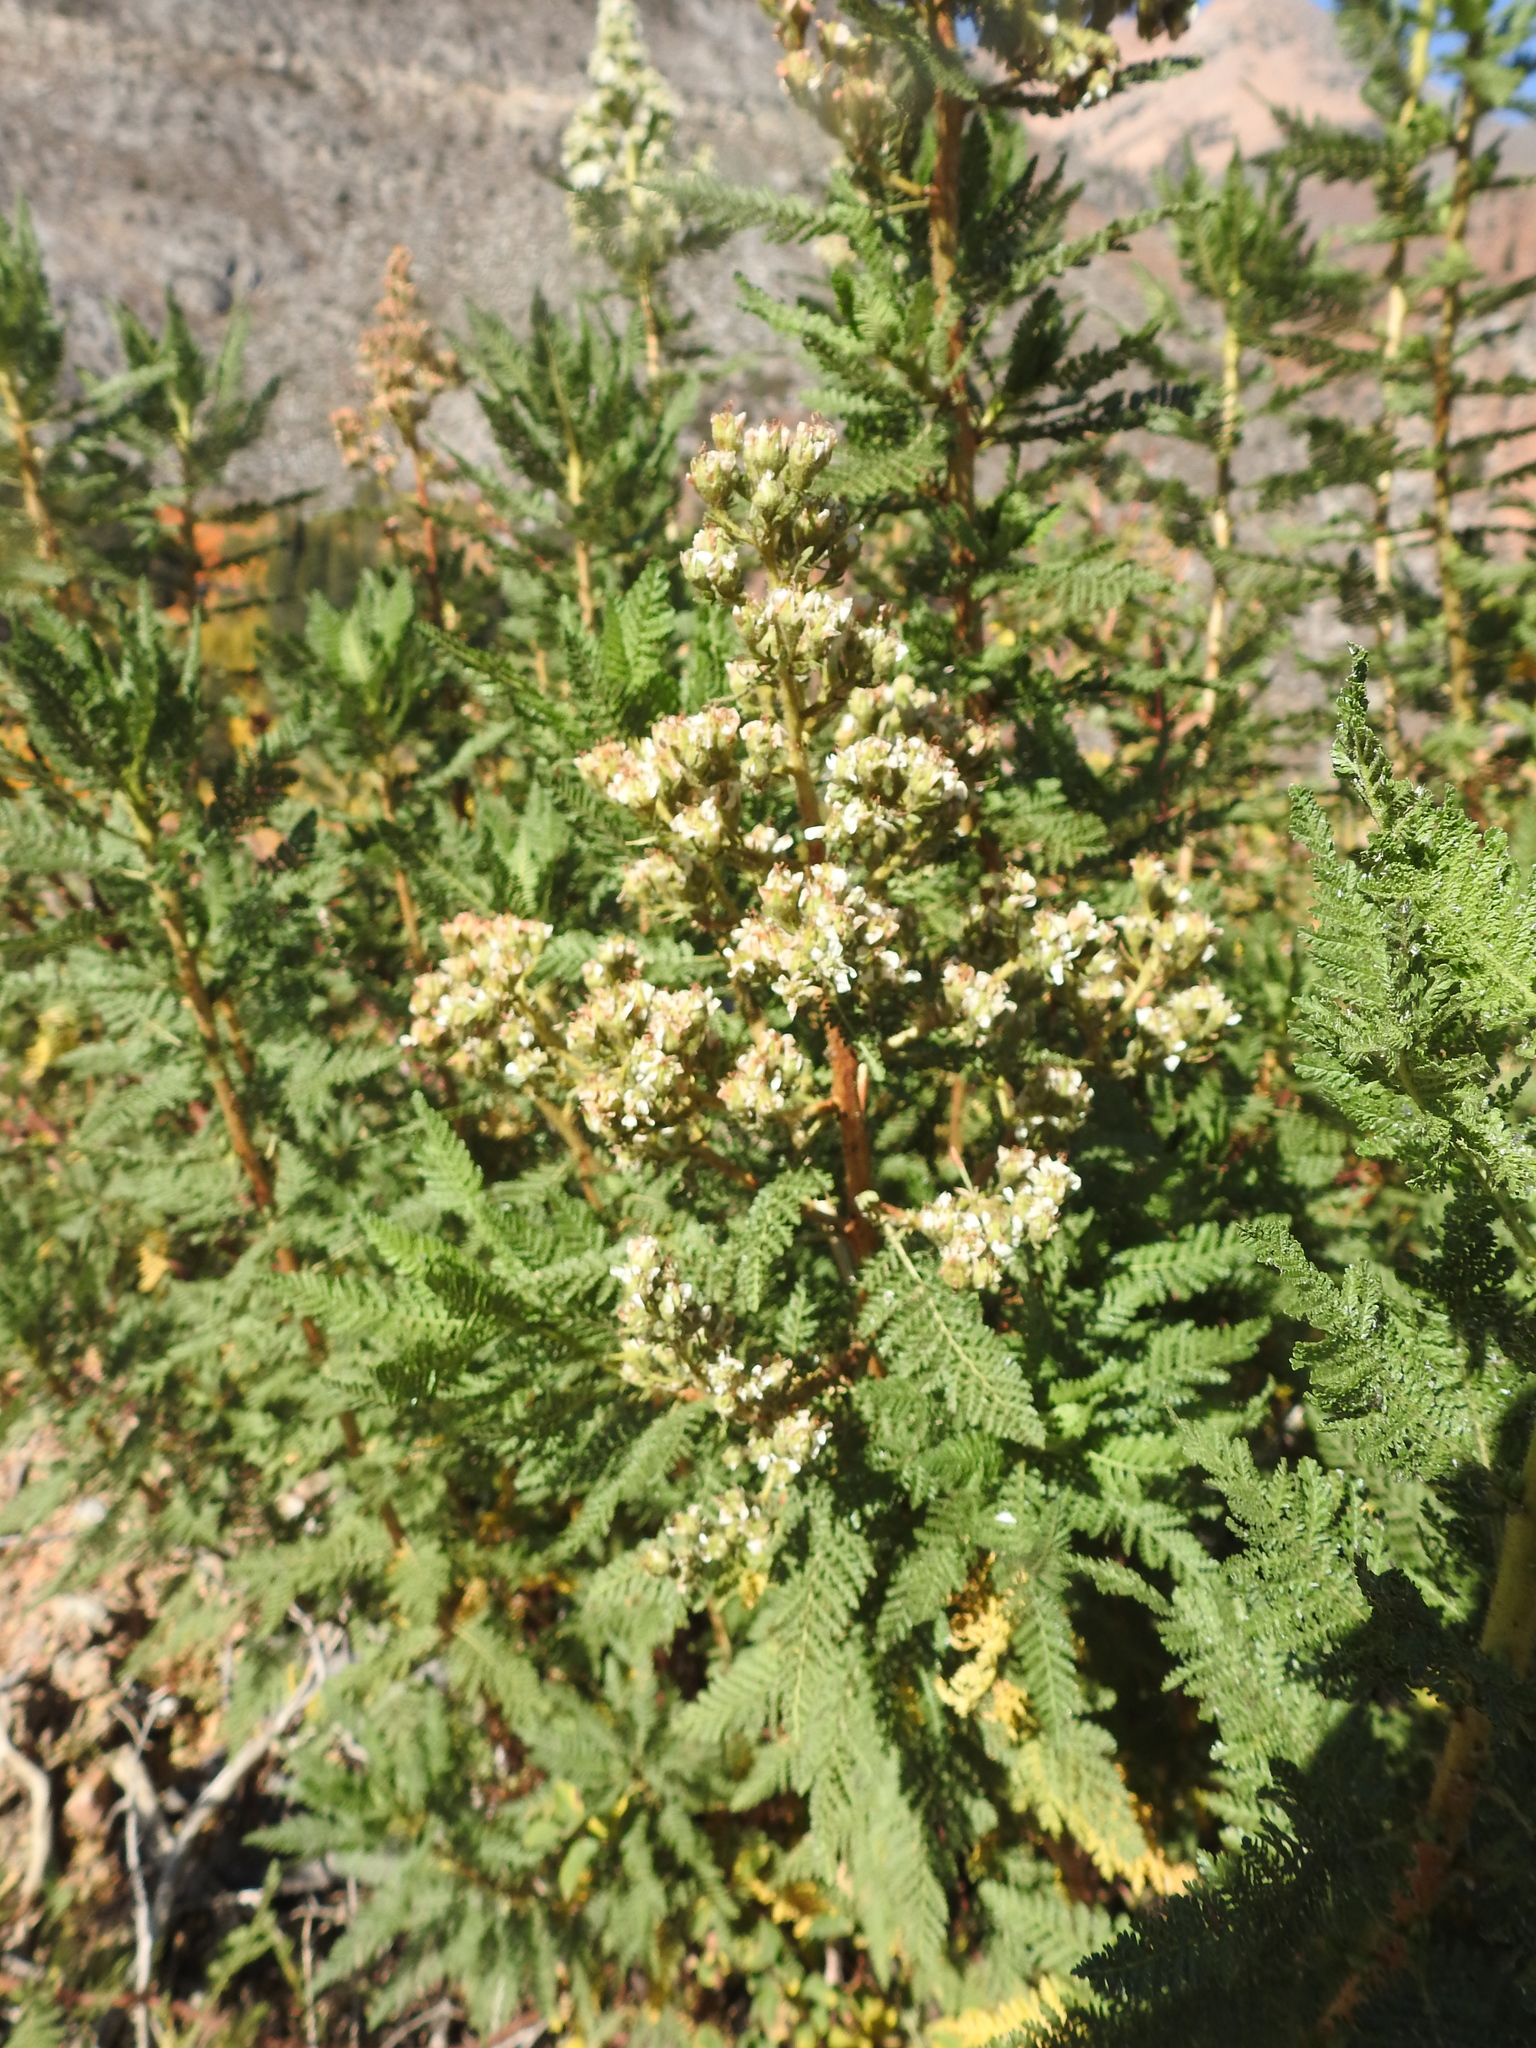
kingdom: Plantae
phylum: Tracheophyta
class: Magnoliopsida
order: Rosales
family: Rosaceae
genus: Chamaebatiaria
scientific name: Chamaebatiaria millefolium
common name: Fernbush
